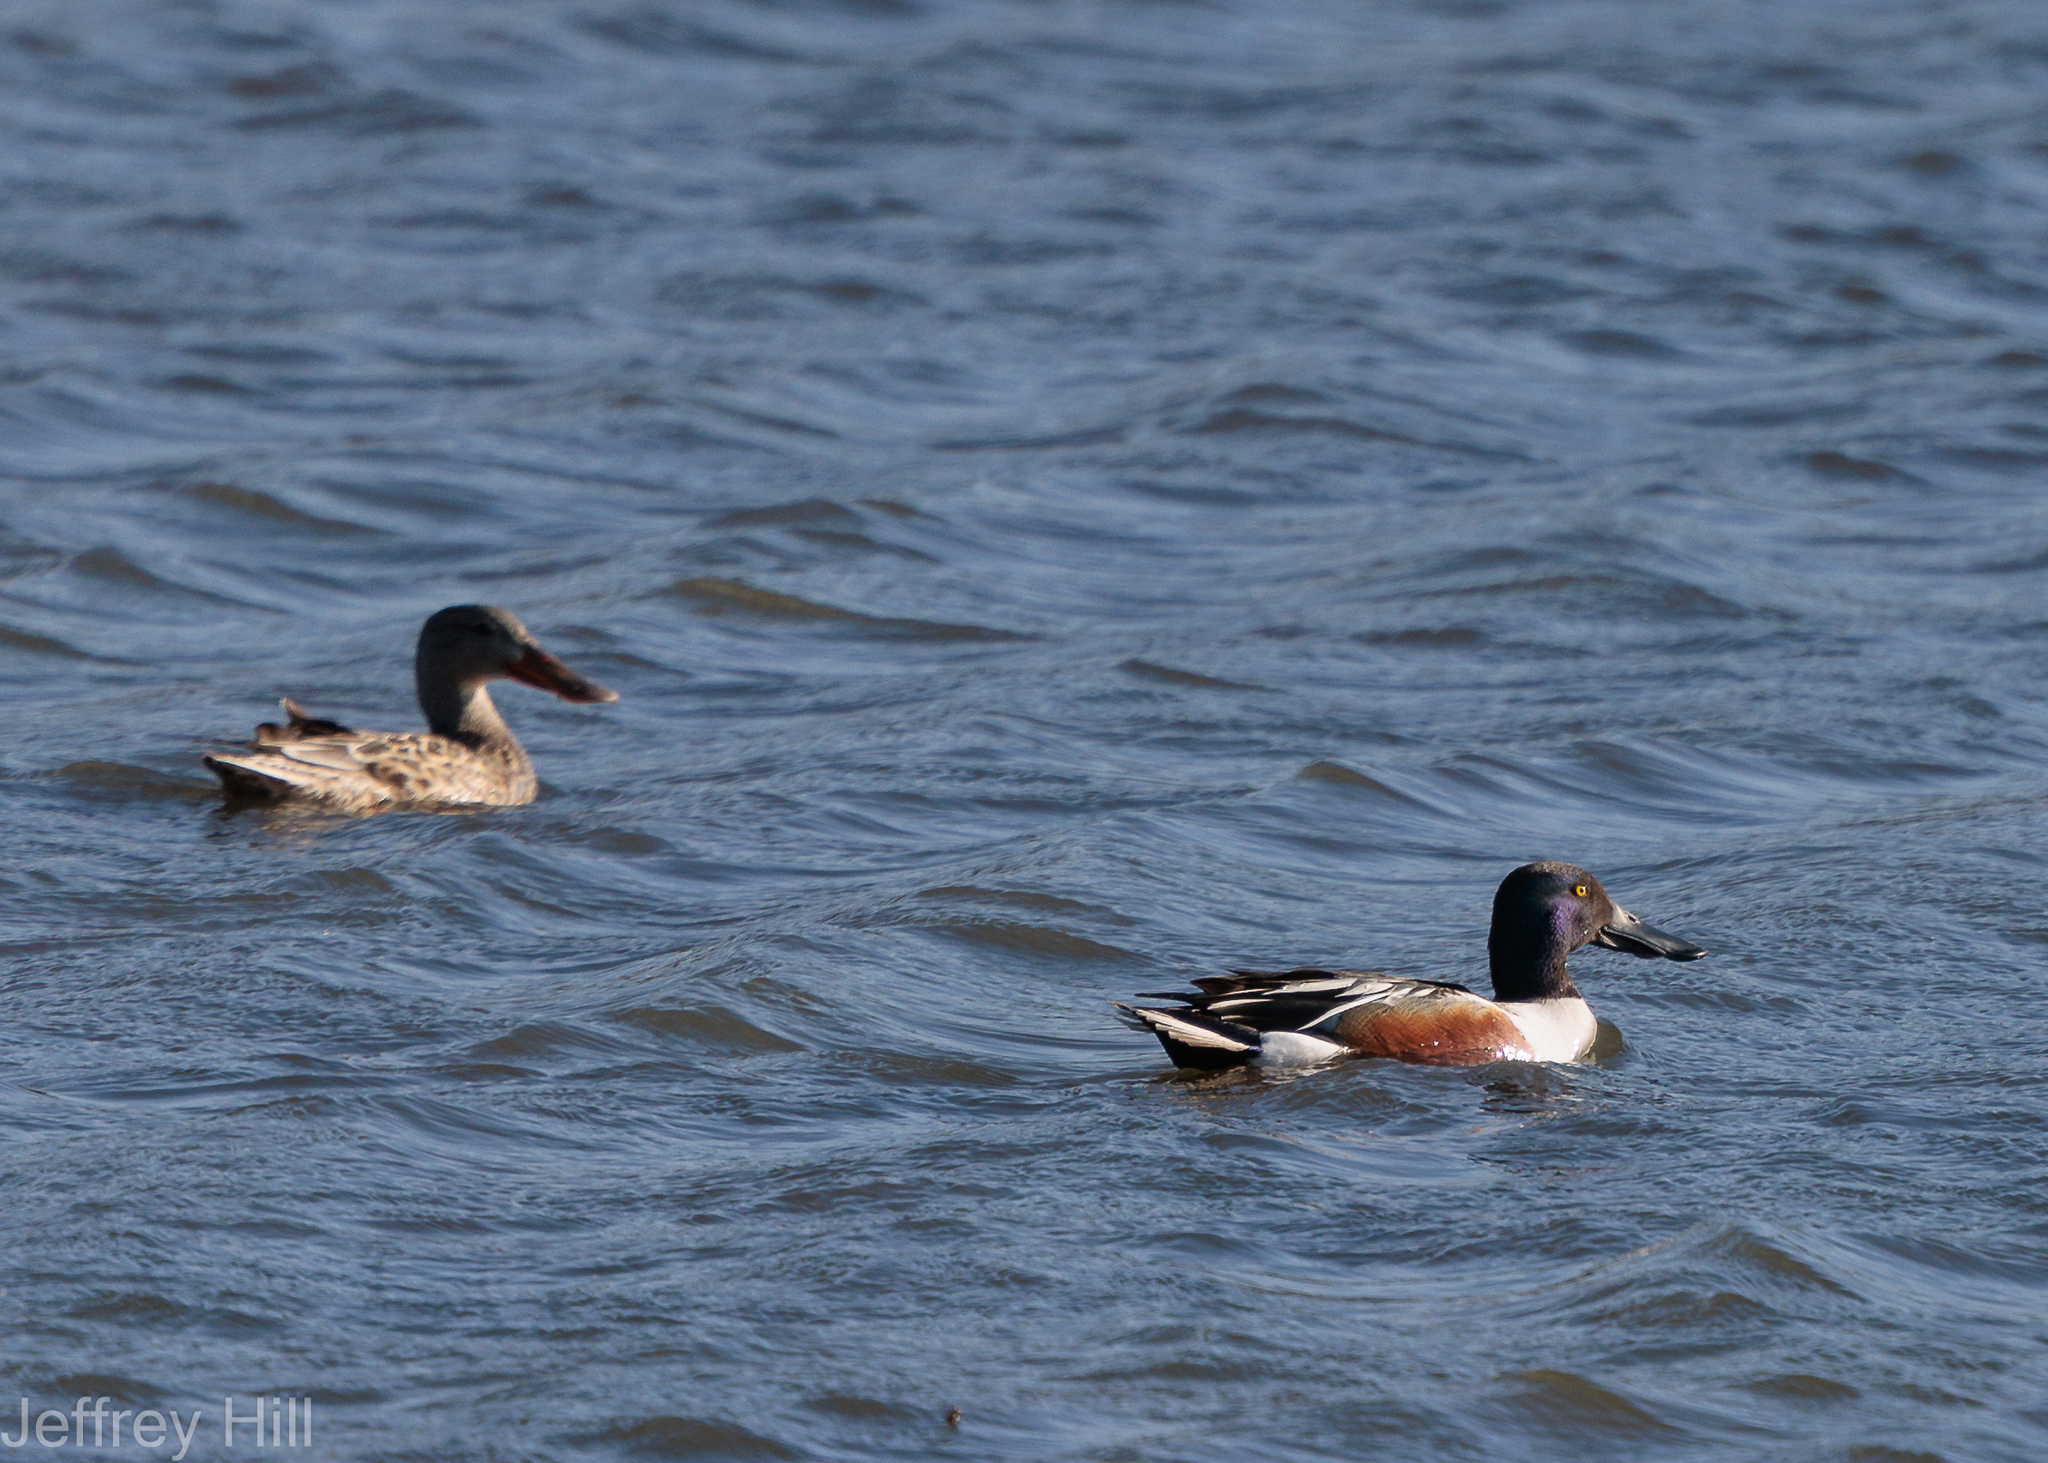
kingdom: Animalia
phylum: Chordata
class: Aves
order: Anseriformes
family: Anatidae
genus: Spatula
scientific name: Spatula clypeata
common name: Northern shoveler
